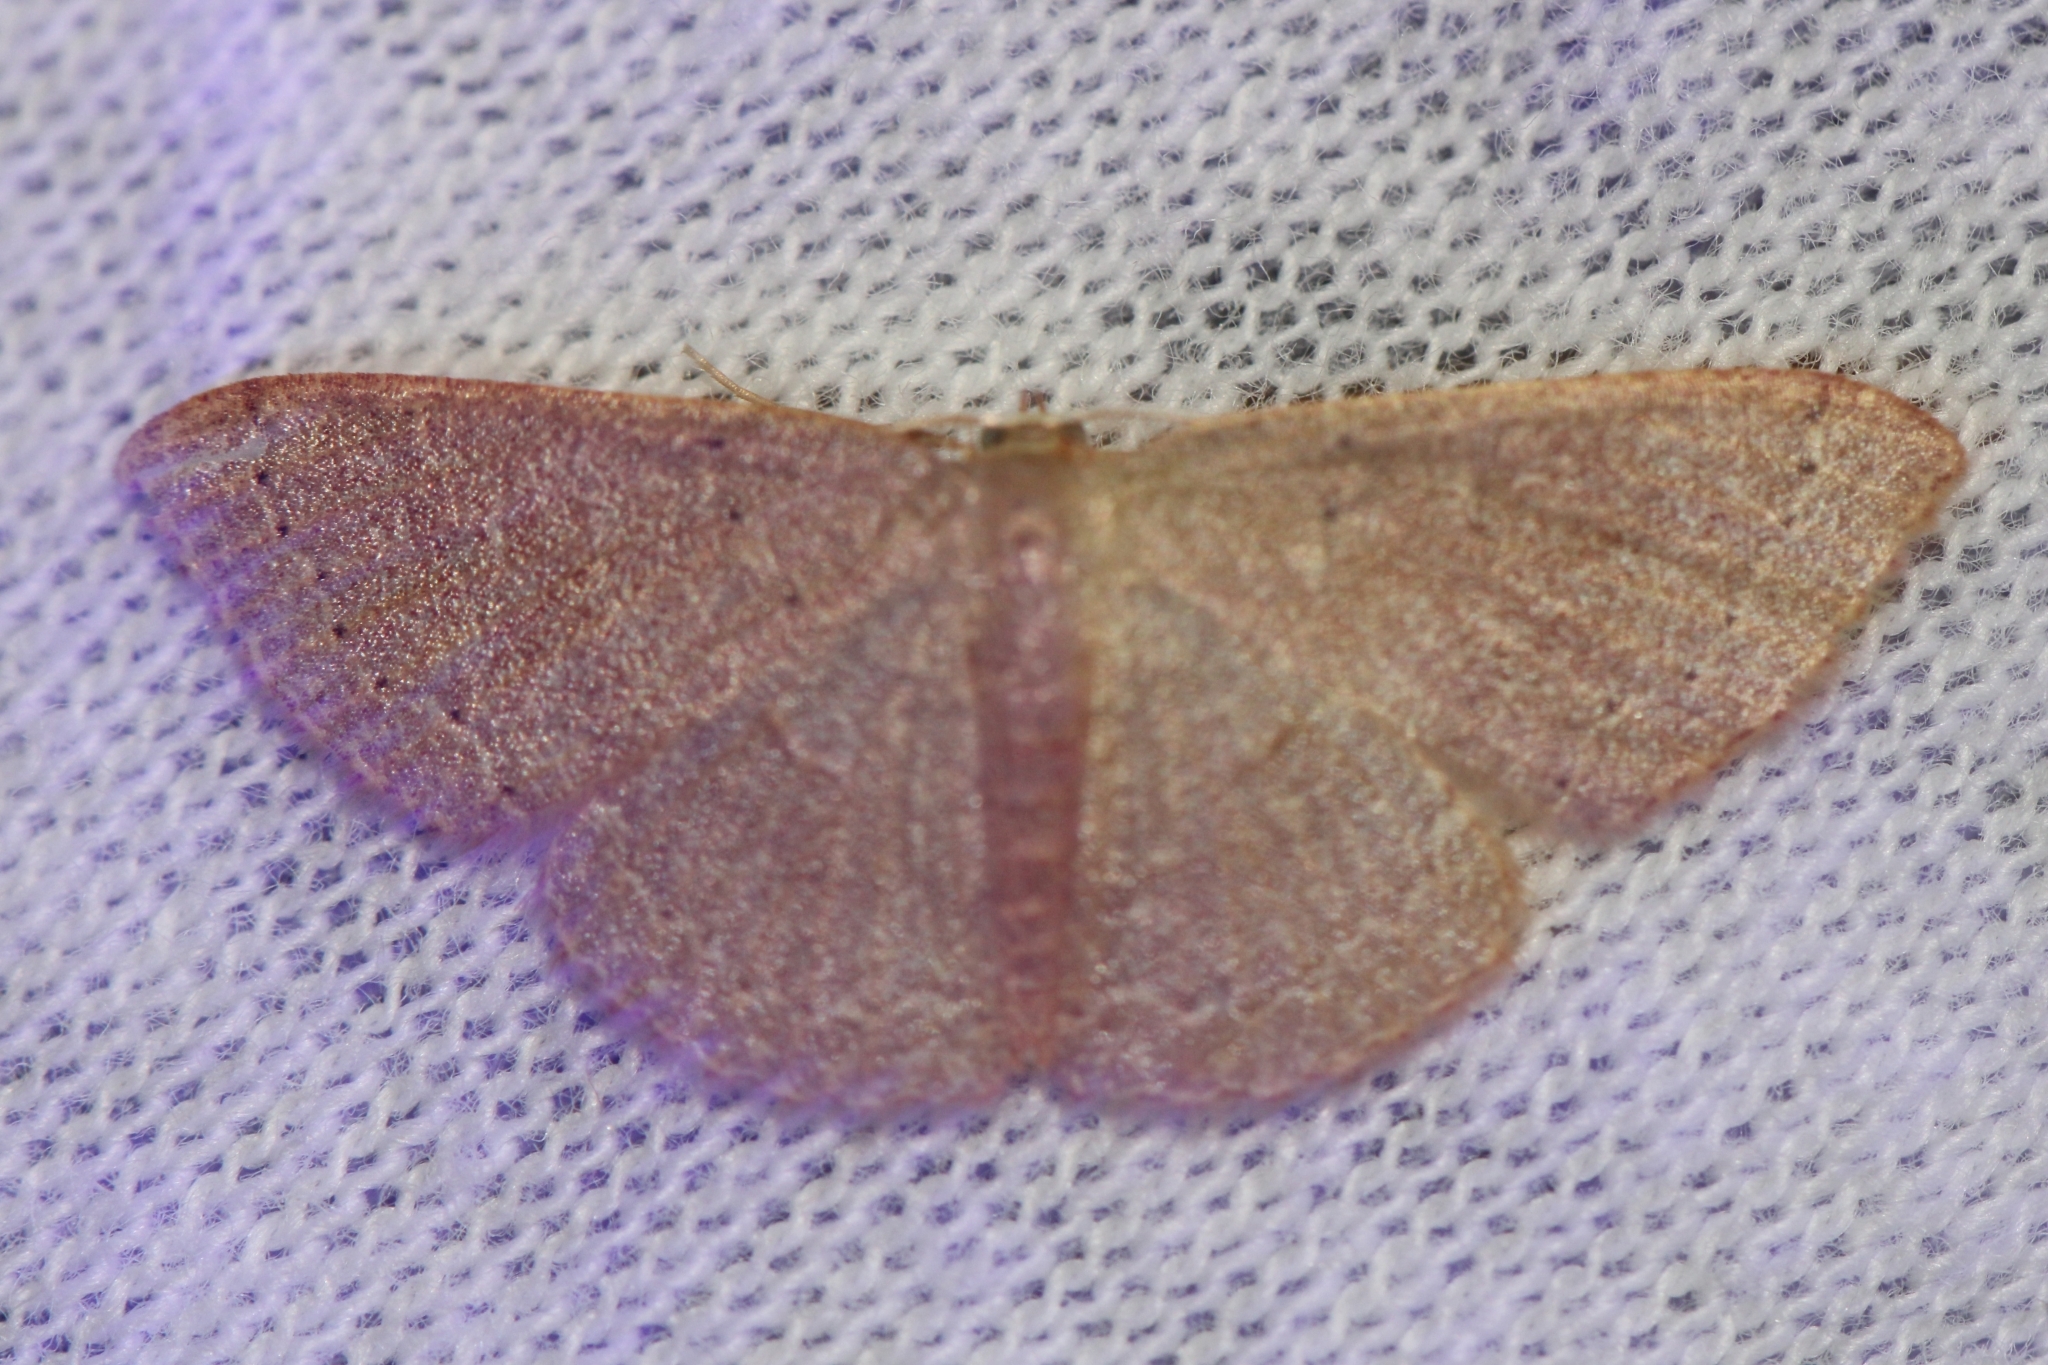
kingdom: Animalia
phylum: Arthropoda
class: Insecta
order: Lepidoptera
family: Geometridae
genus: Pleuroprucha
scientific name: Pleuroprucha insulsaria
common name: Common tan wave
